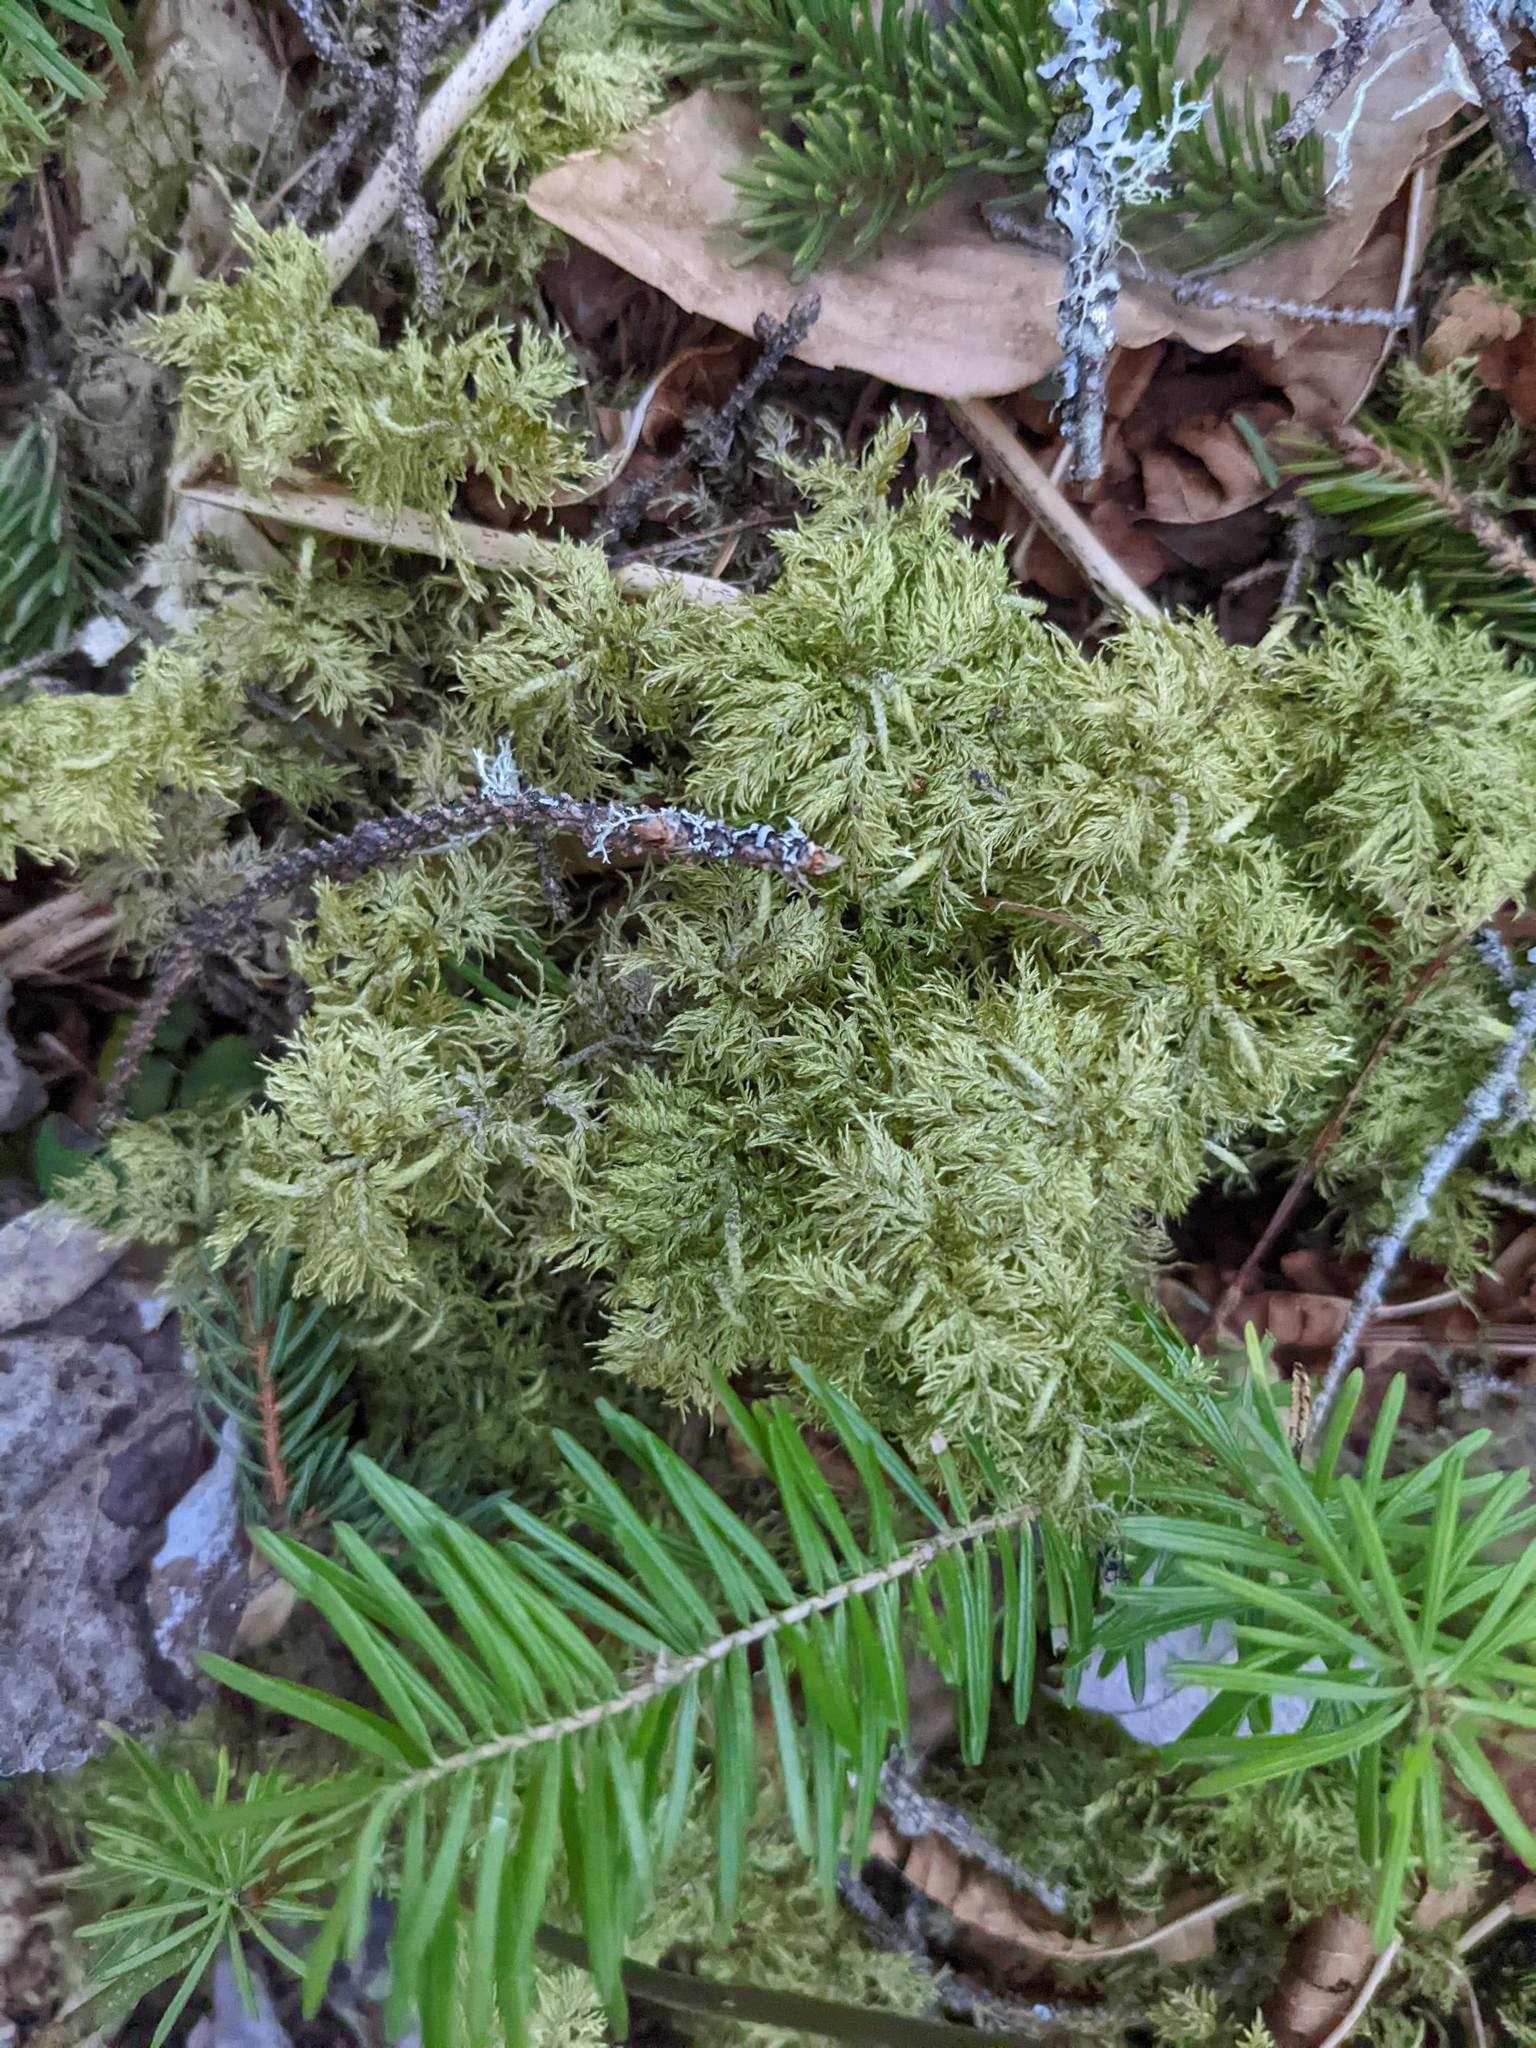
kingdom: Plantae
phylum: Bryophyta
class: Bryopsida
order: Hypnales
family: Hylocomiaceae
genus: Hylocomium
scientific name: Hylocomium splendens
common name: Stairstep moss
